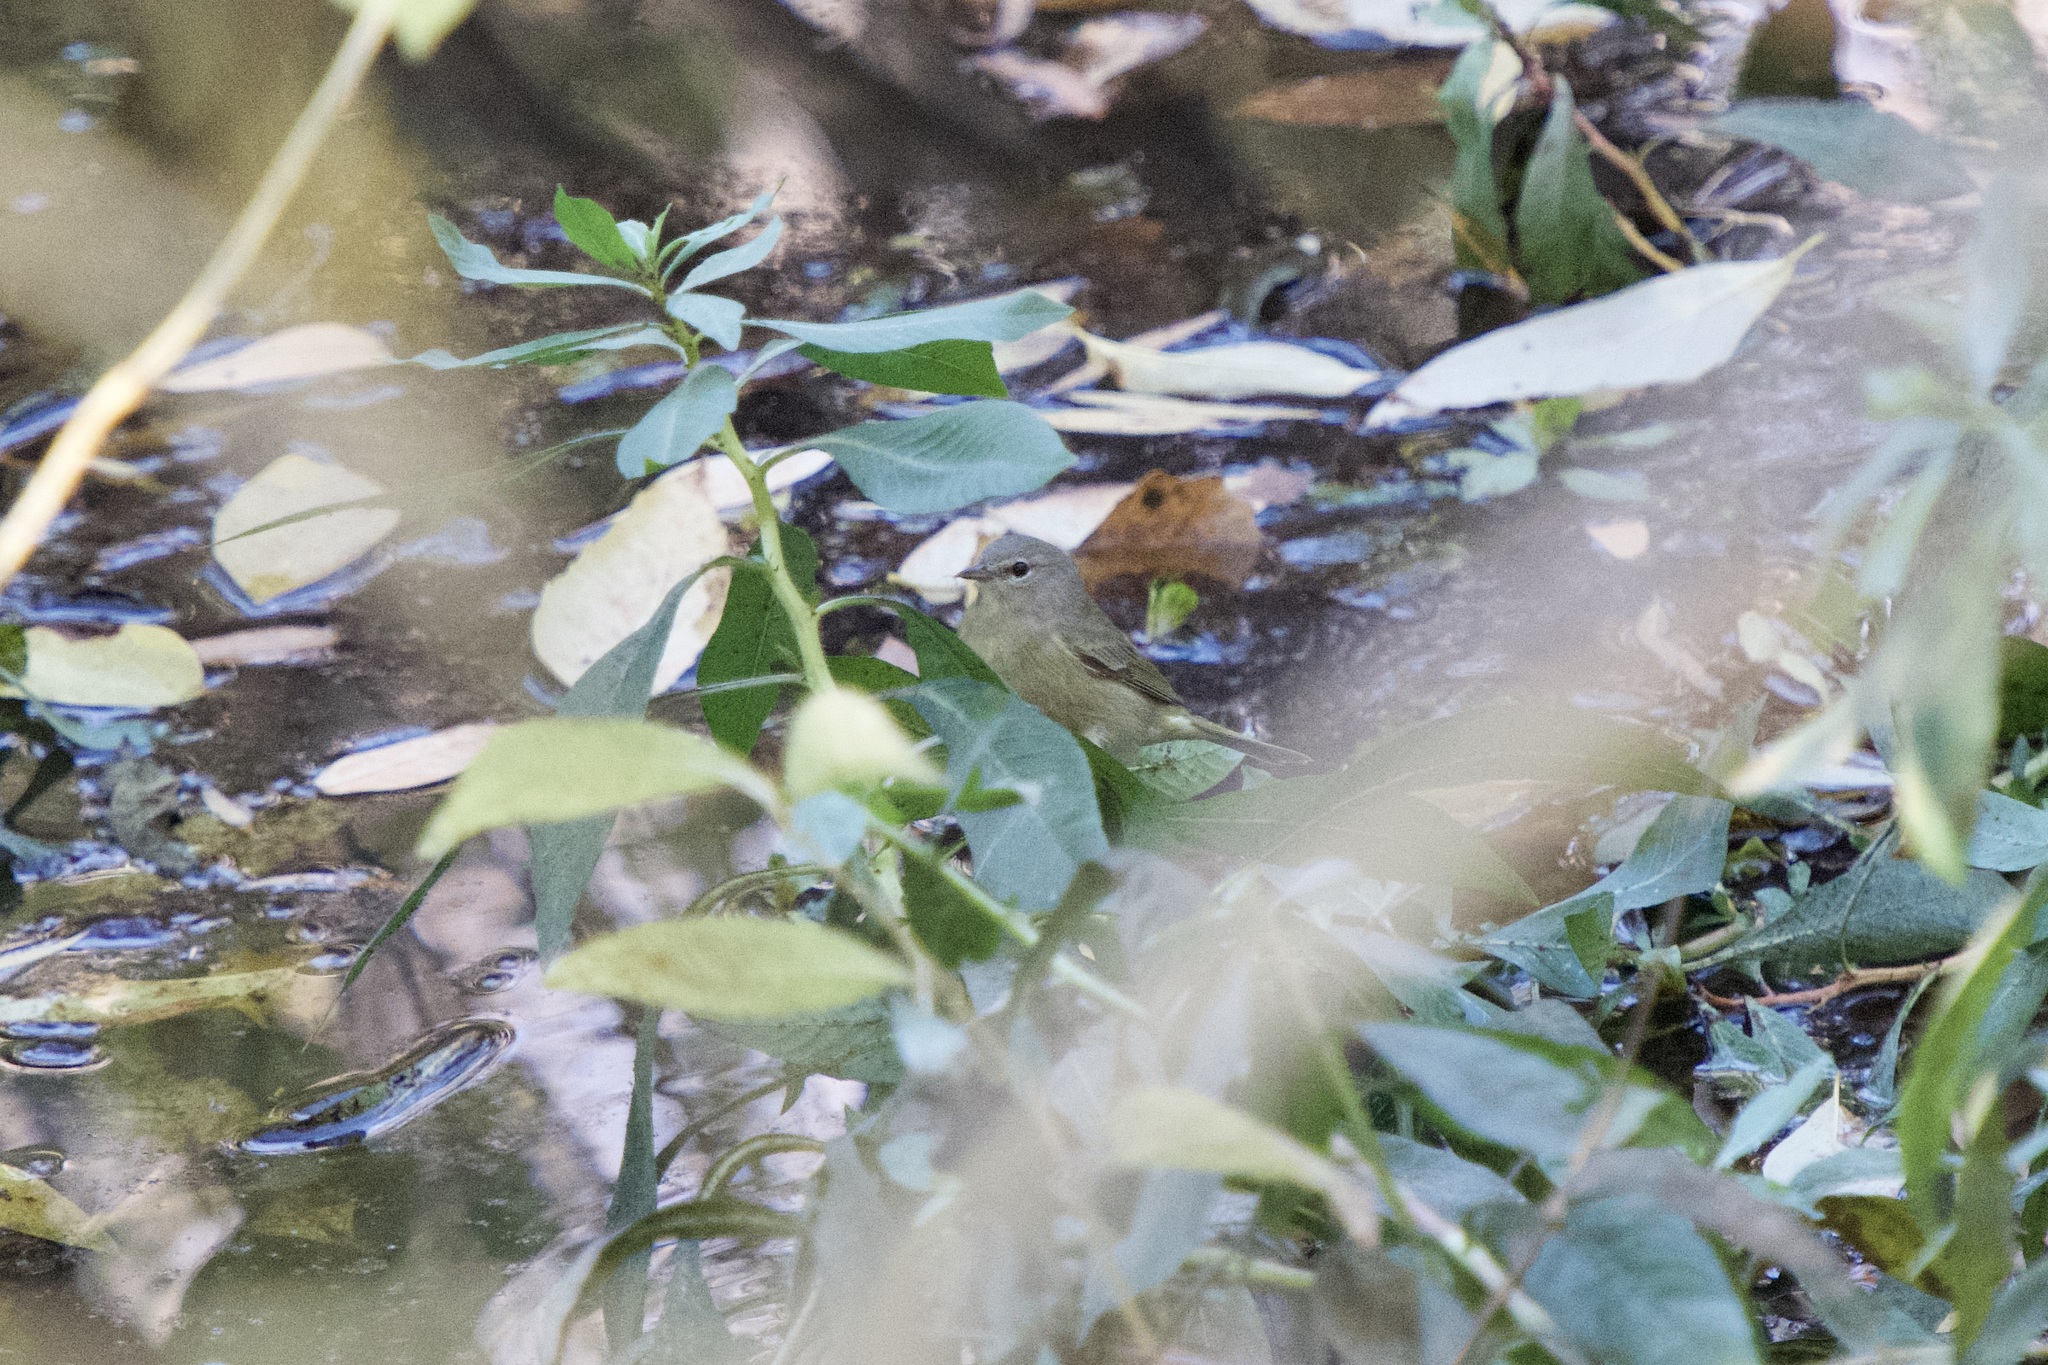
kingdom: Animalia
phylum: Chordata
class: Aves
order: Passeriformes
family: Parulidae
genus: Leiothlypis
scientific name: Leiothlypis celata
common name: Orange-crowned warbler
